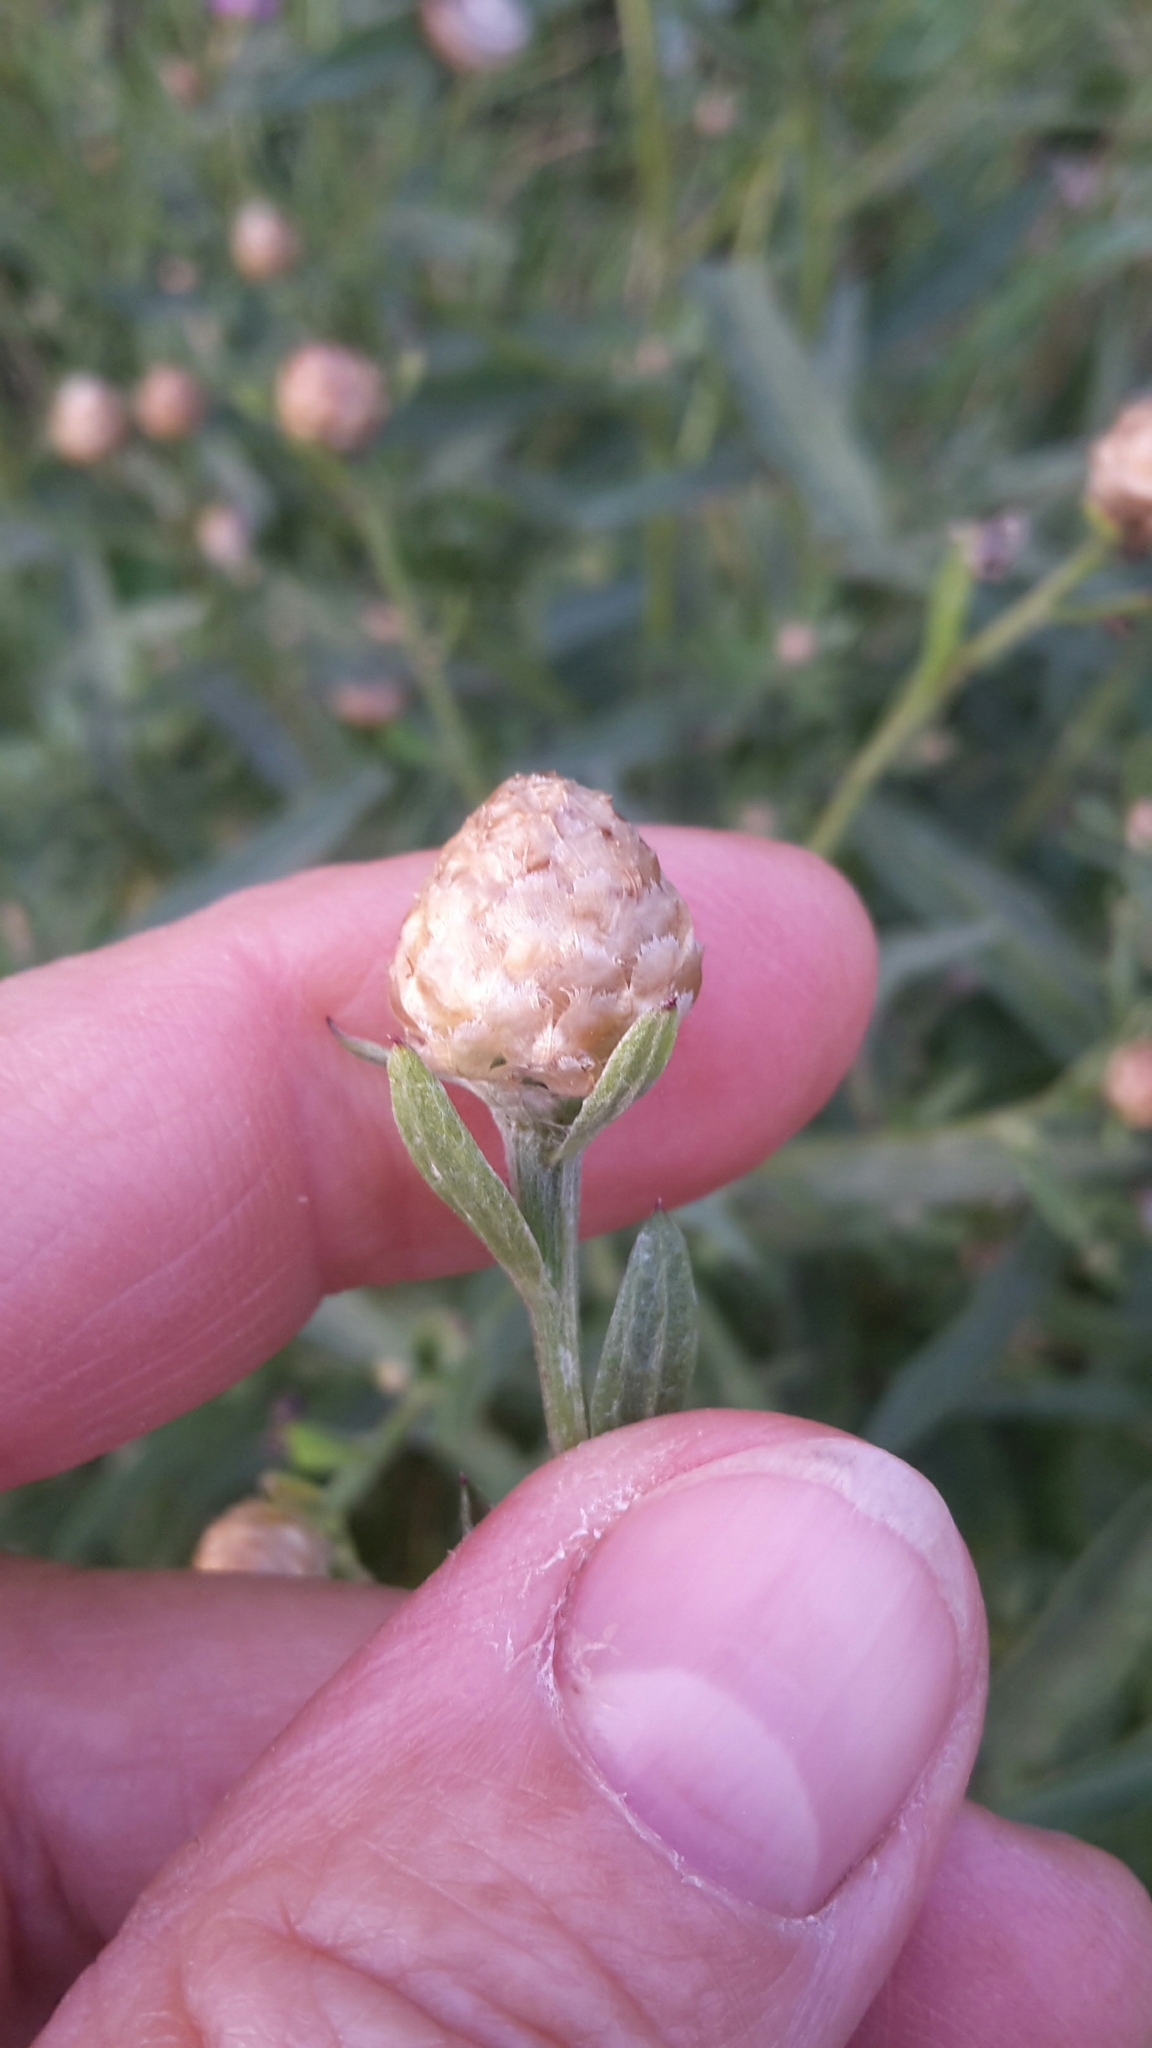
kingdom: Plantae
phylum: Tracheophyta
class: Magnoliopsida
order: Asterales
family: Asteraceae
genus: Centaurea
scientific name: Centaurea jacea
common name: Brown knapweed
